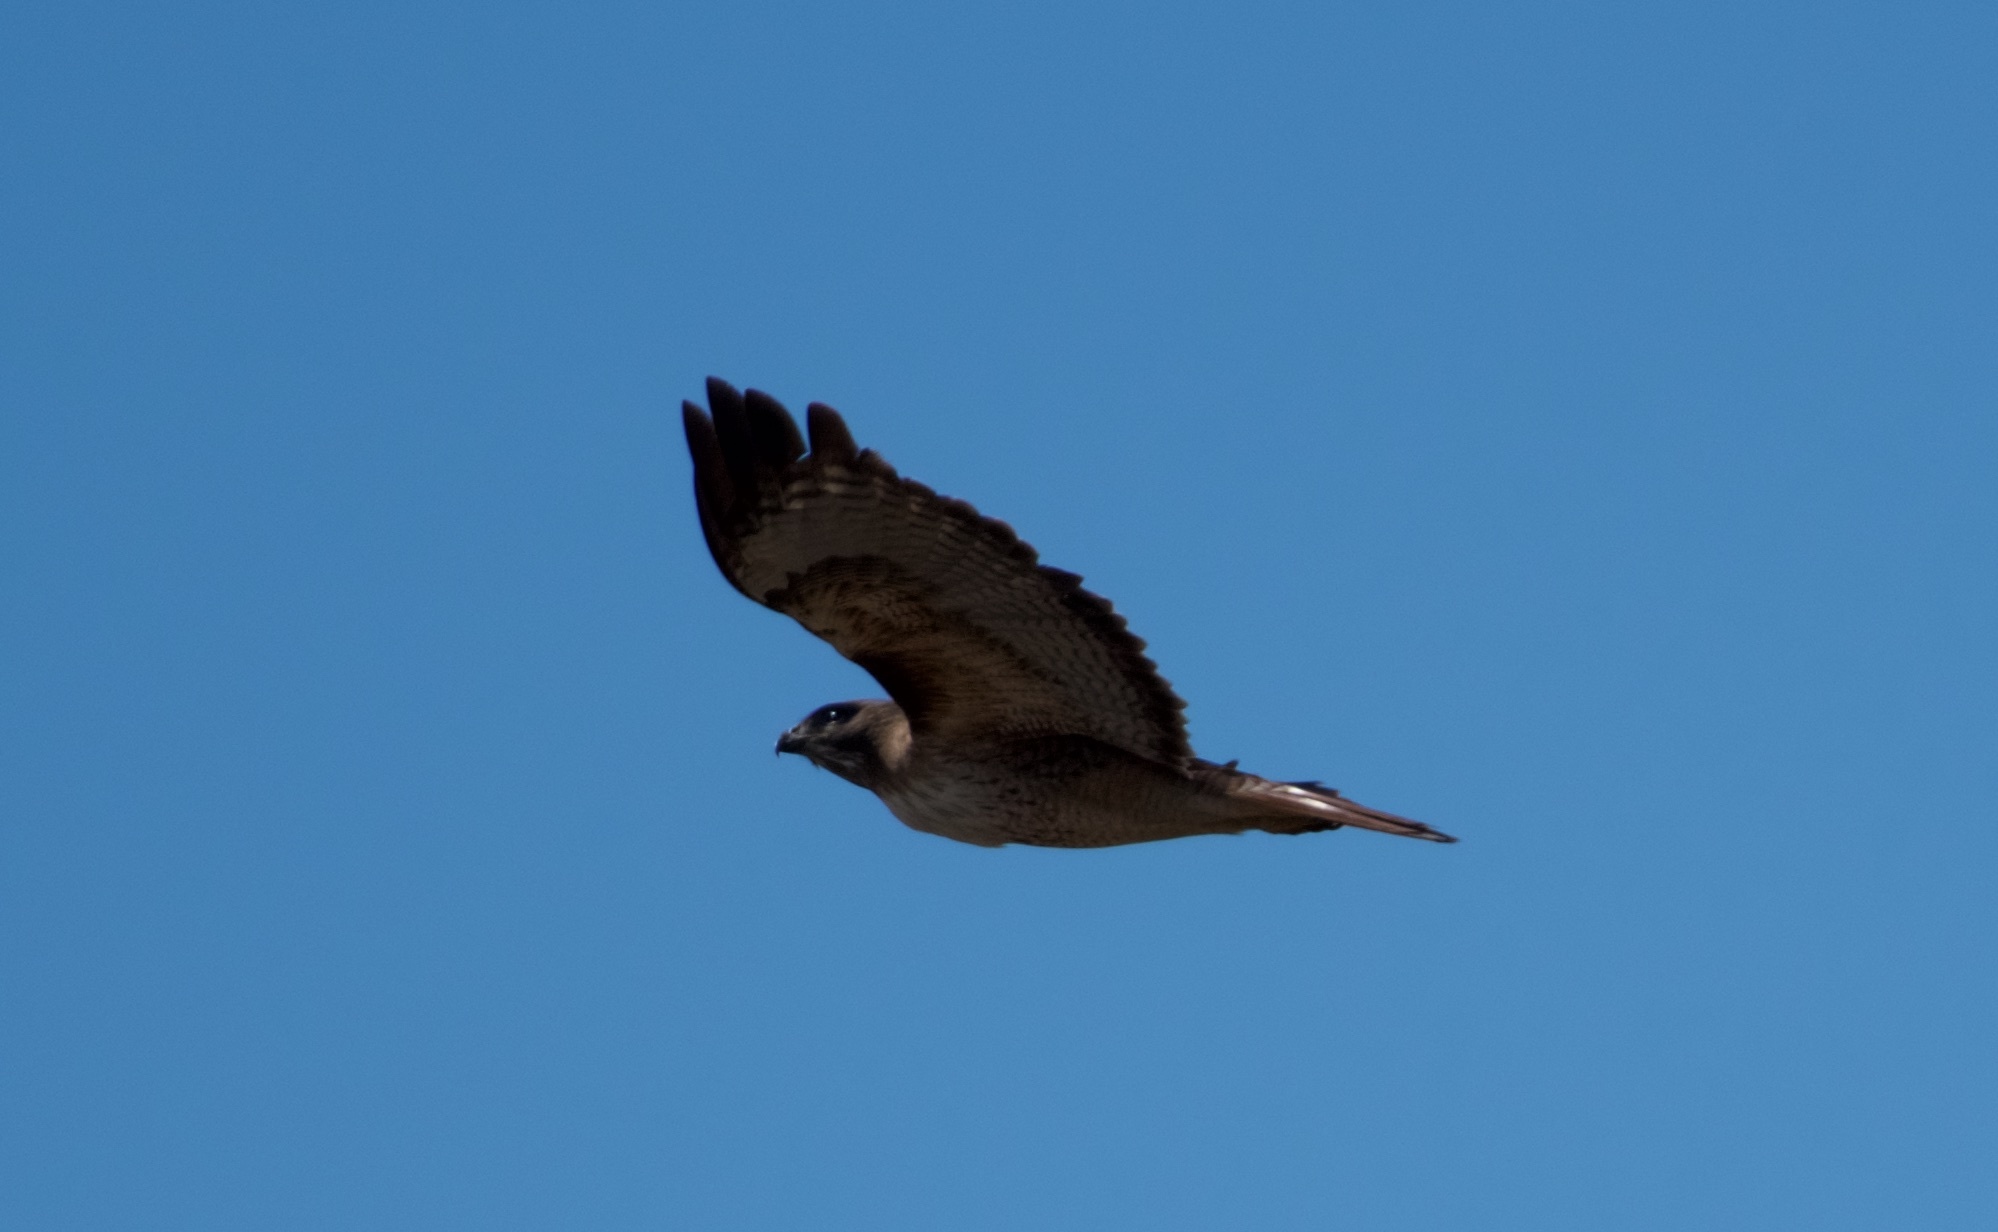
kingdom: Animalia
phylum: Chordata
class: Aves
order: Accipitriformes
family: Accipitridae
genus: Buteo
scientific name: Buteo jamaicensis
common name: Red-tailed hawk
